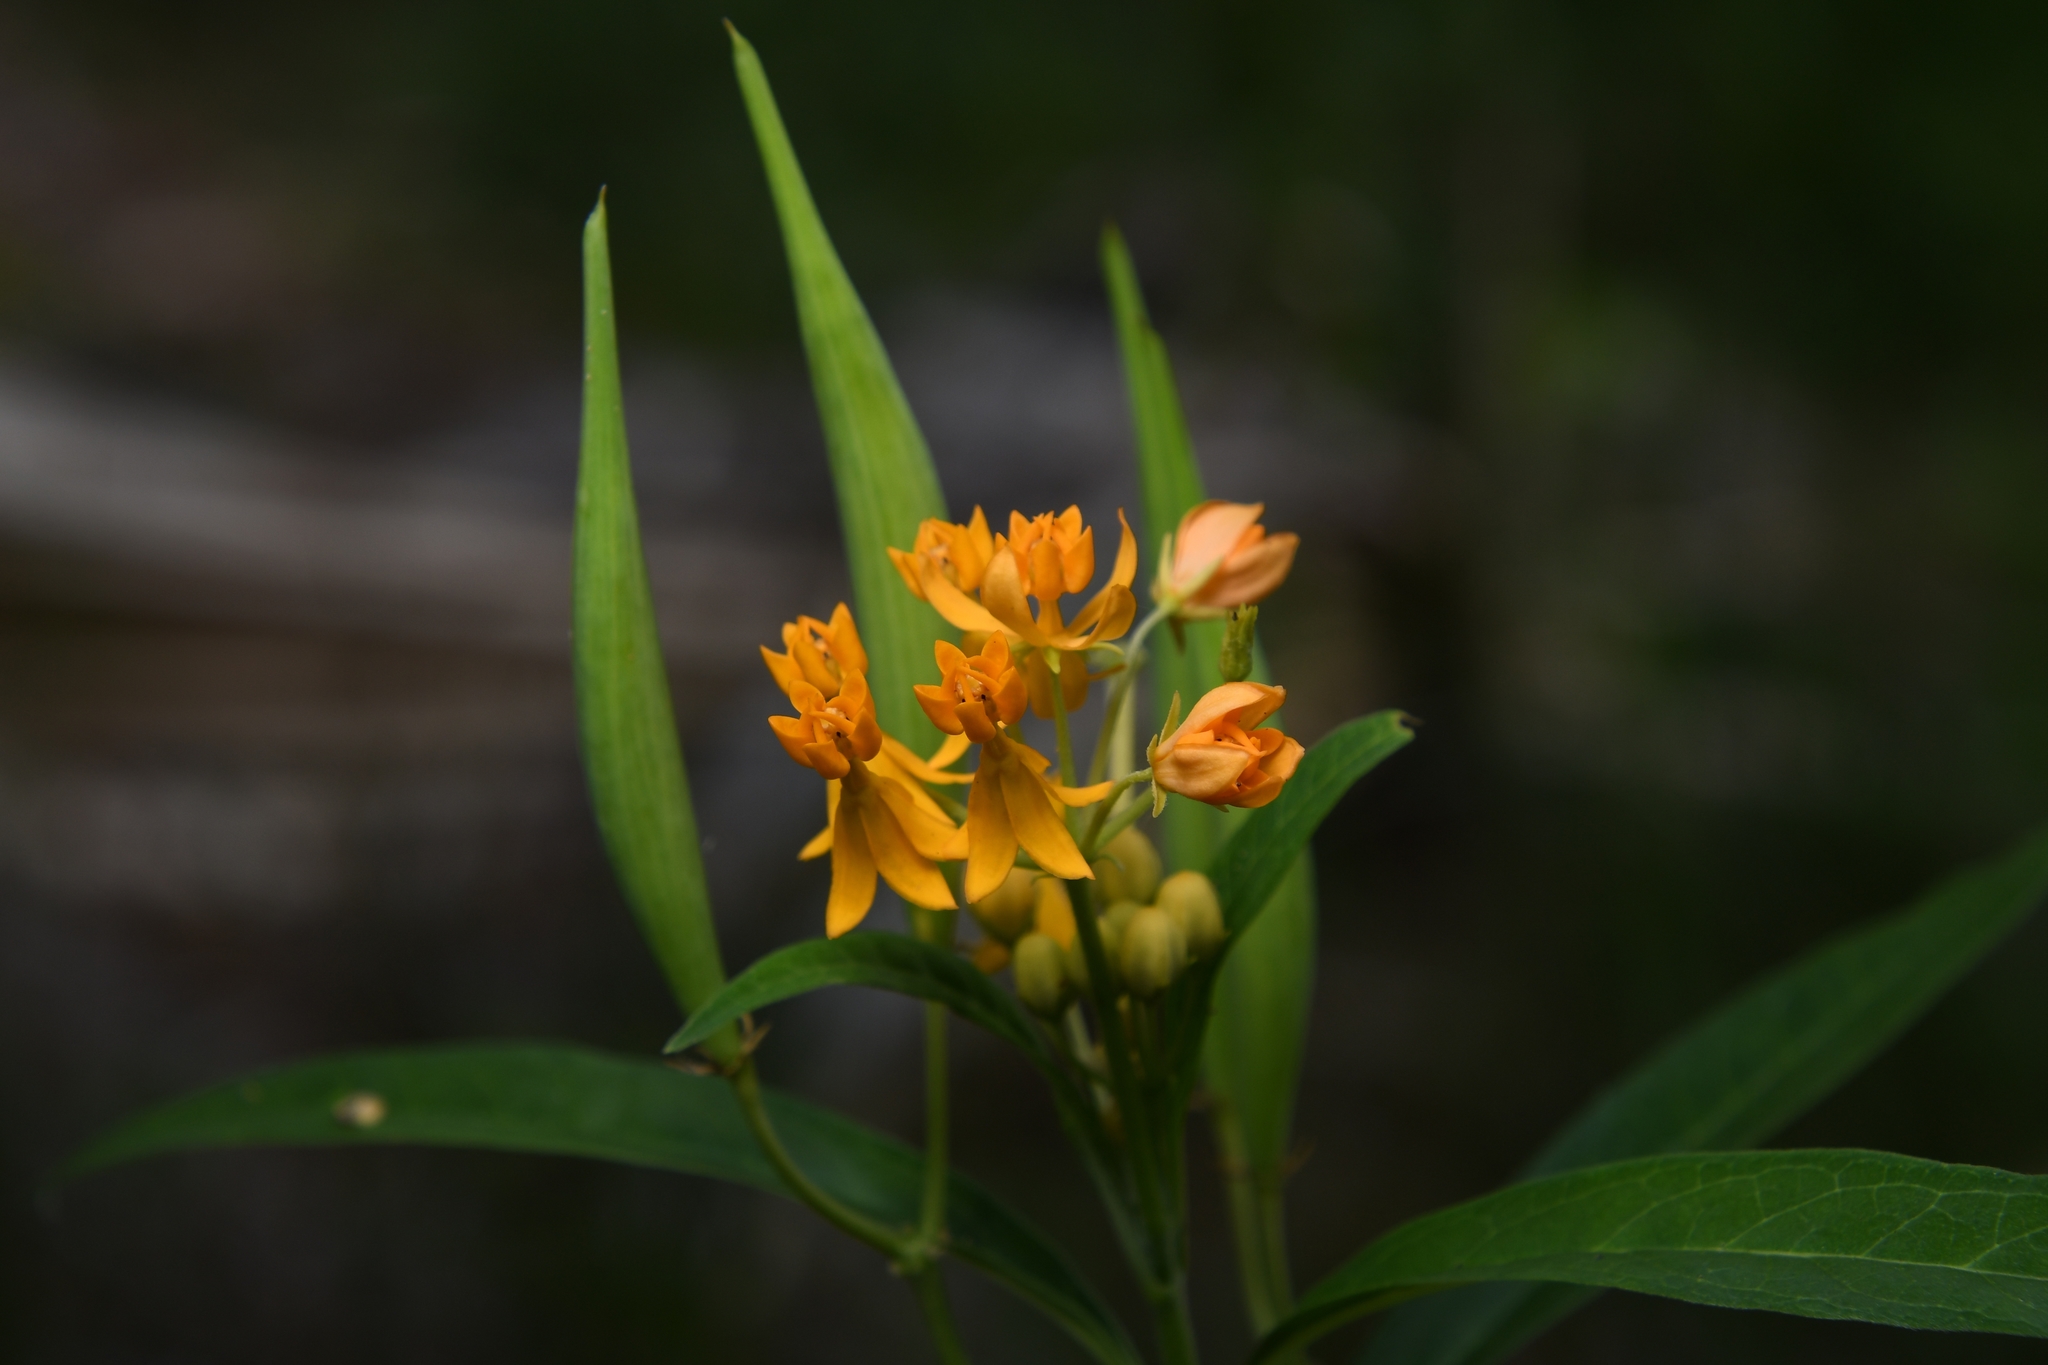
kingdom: Plantae
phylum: Tracheophyta
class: Magnoliopsida
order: Gentianales
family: Apocynaceae
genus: Asclepias
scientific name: Asclepias curassavica
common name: Bloodflower
